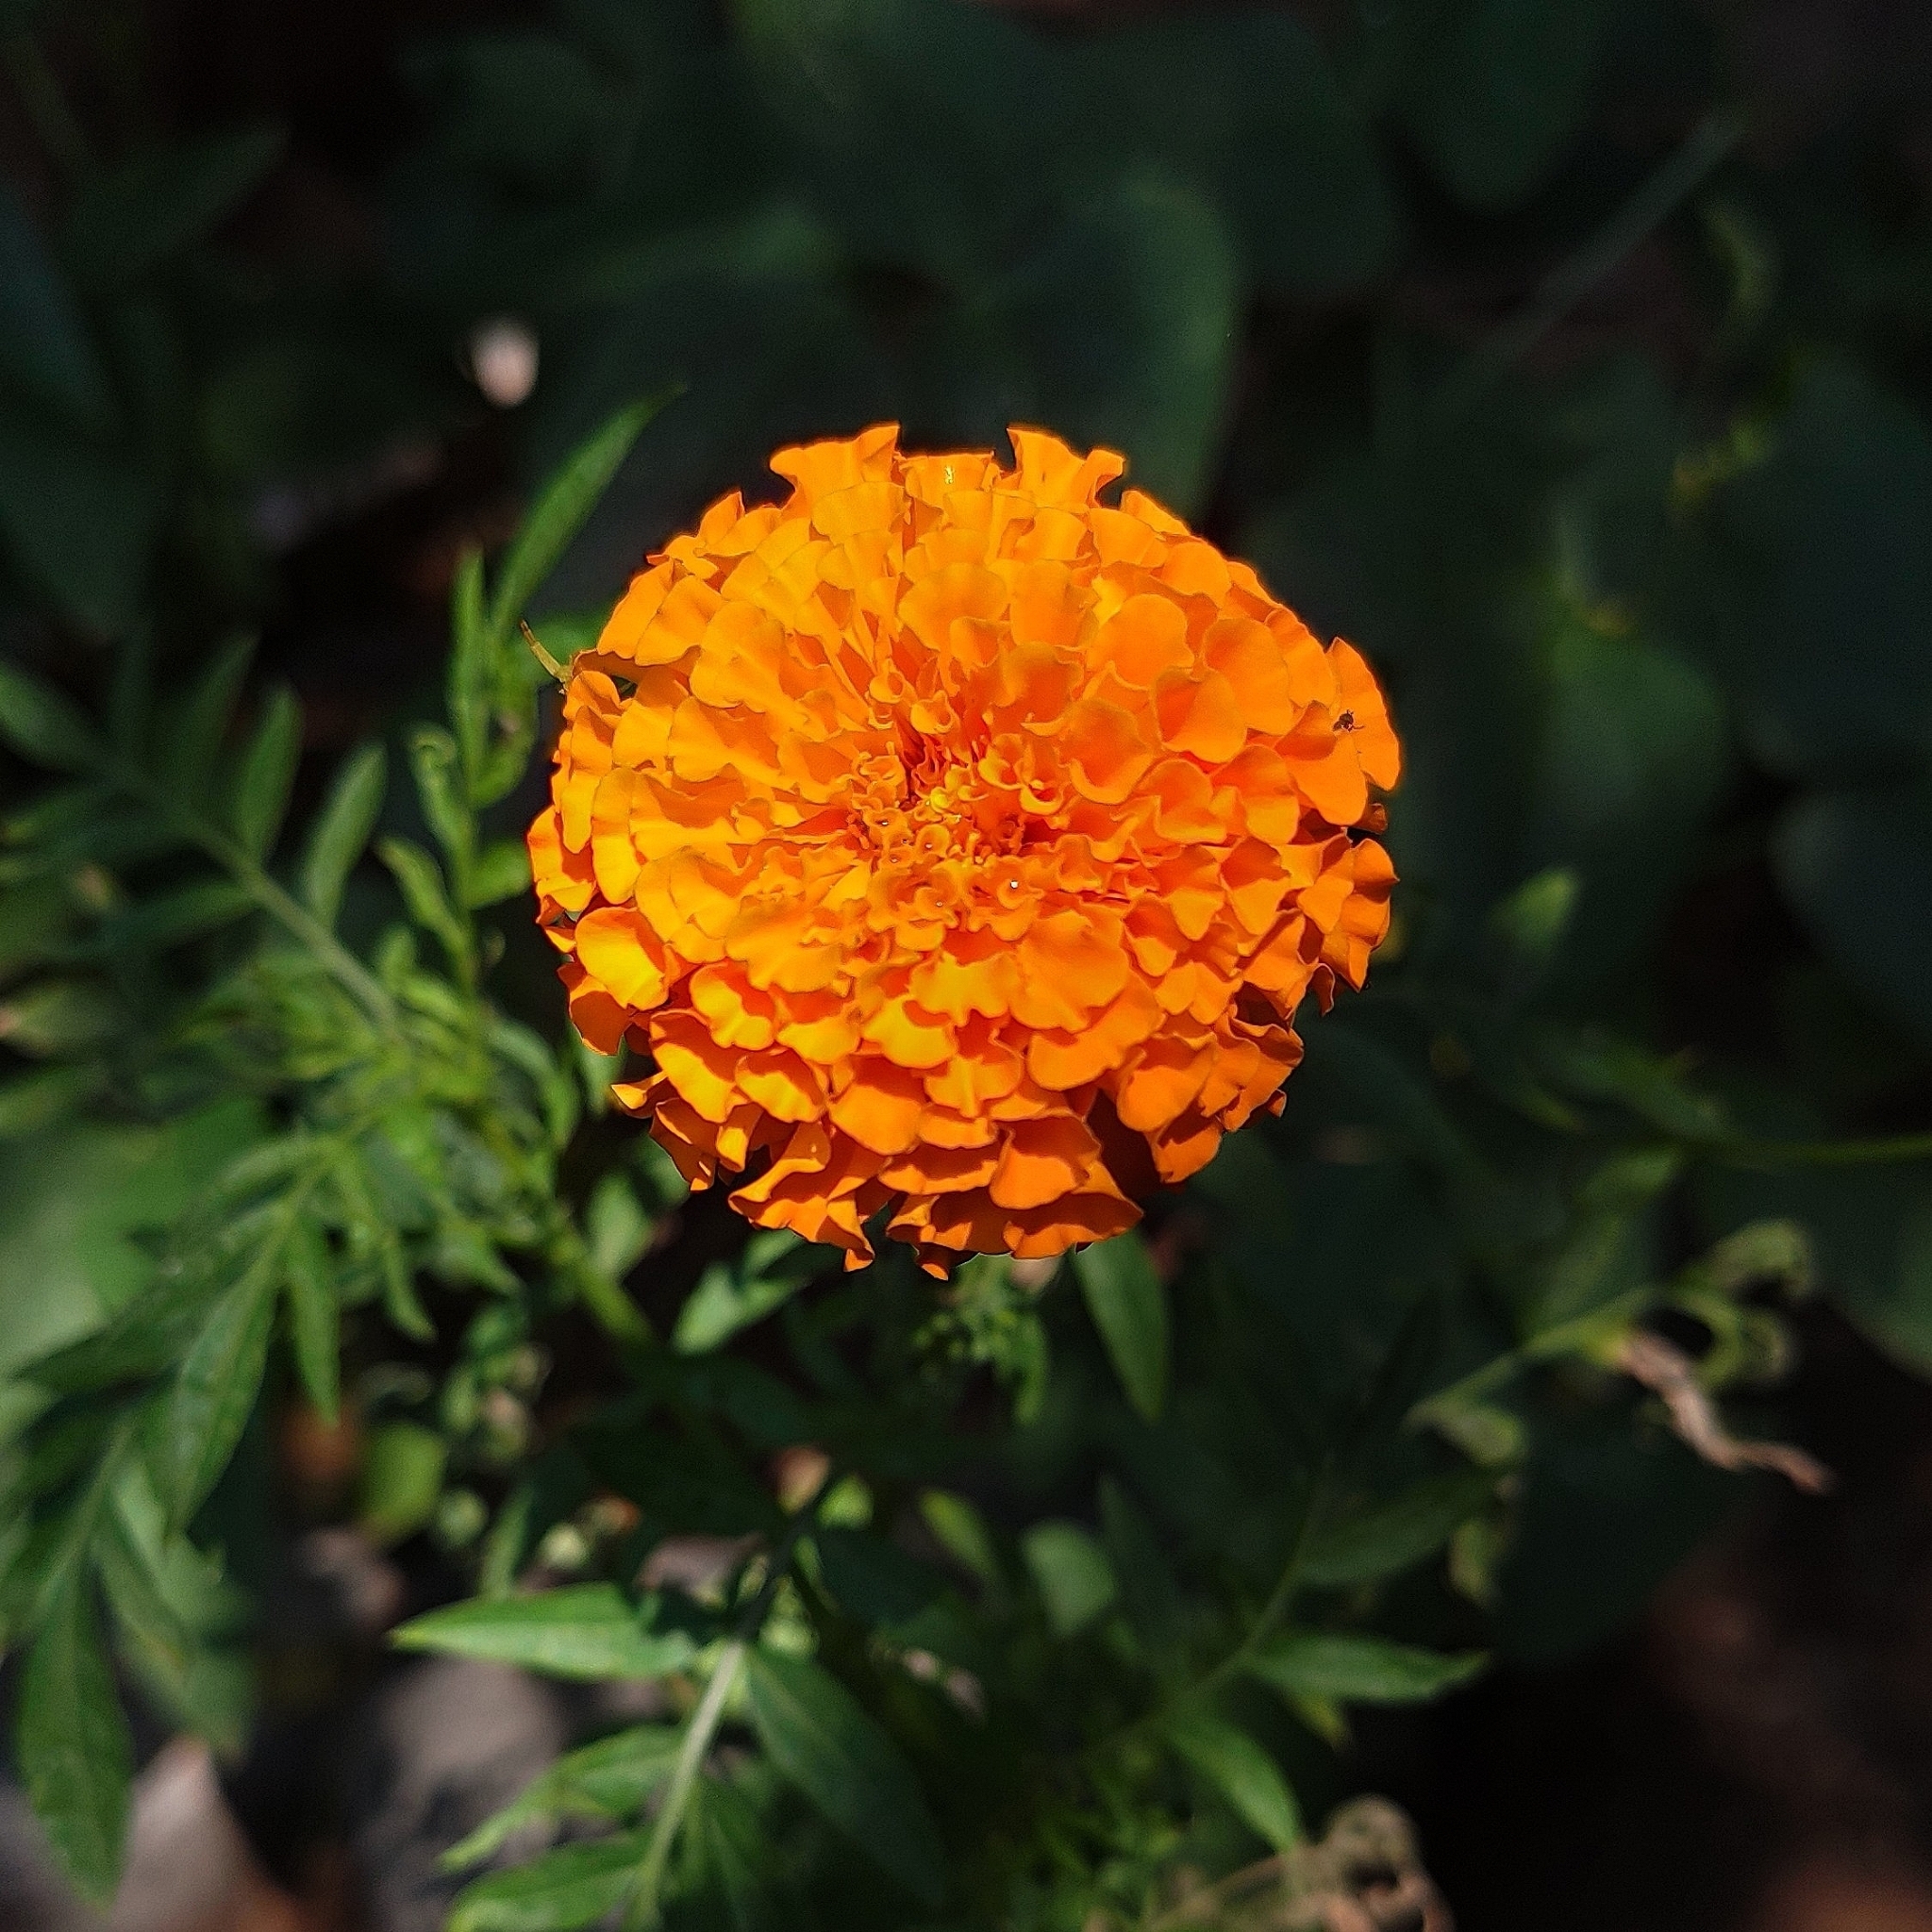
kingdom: Plantae
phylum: Tracheophyta
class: Magnoliopsida
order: Asterales
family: Asteraceae
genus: Tagetes
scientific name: Tagetes erecta
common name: African marigold
